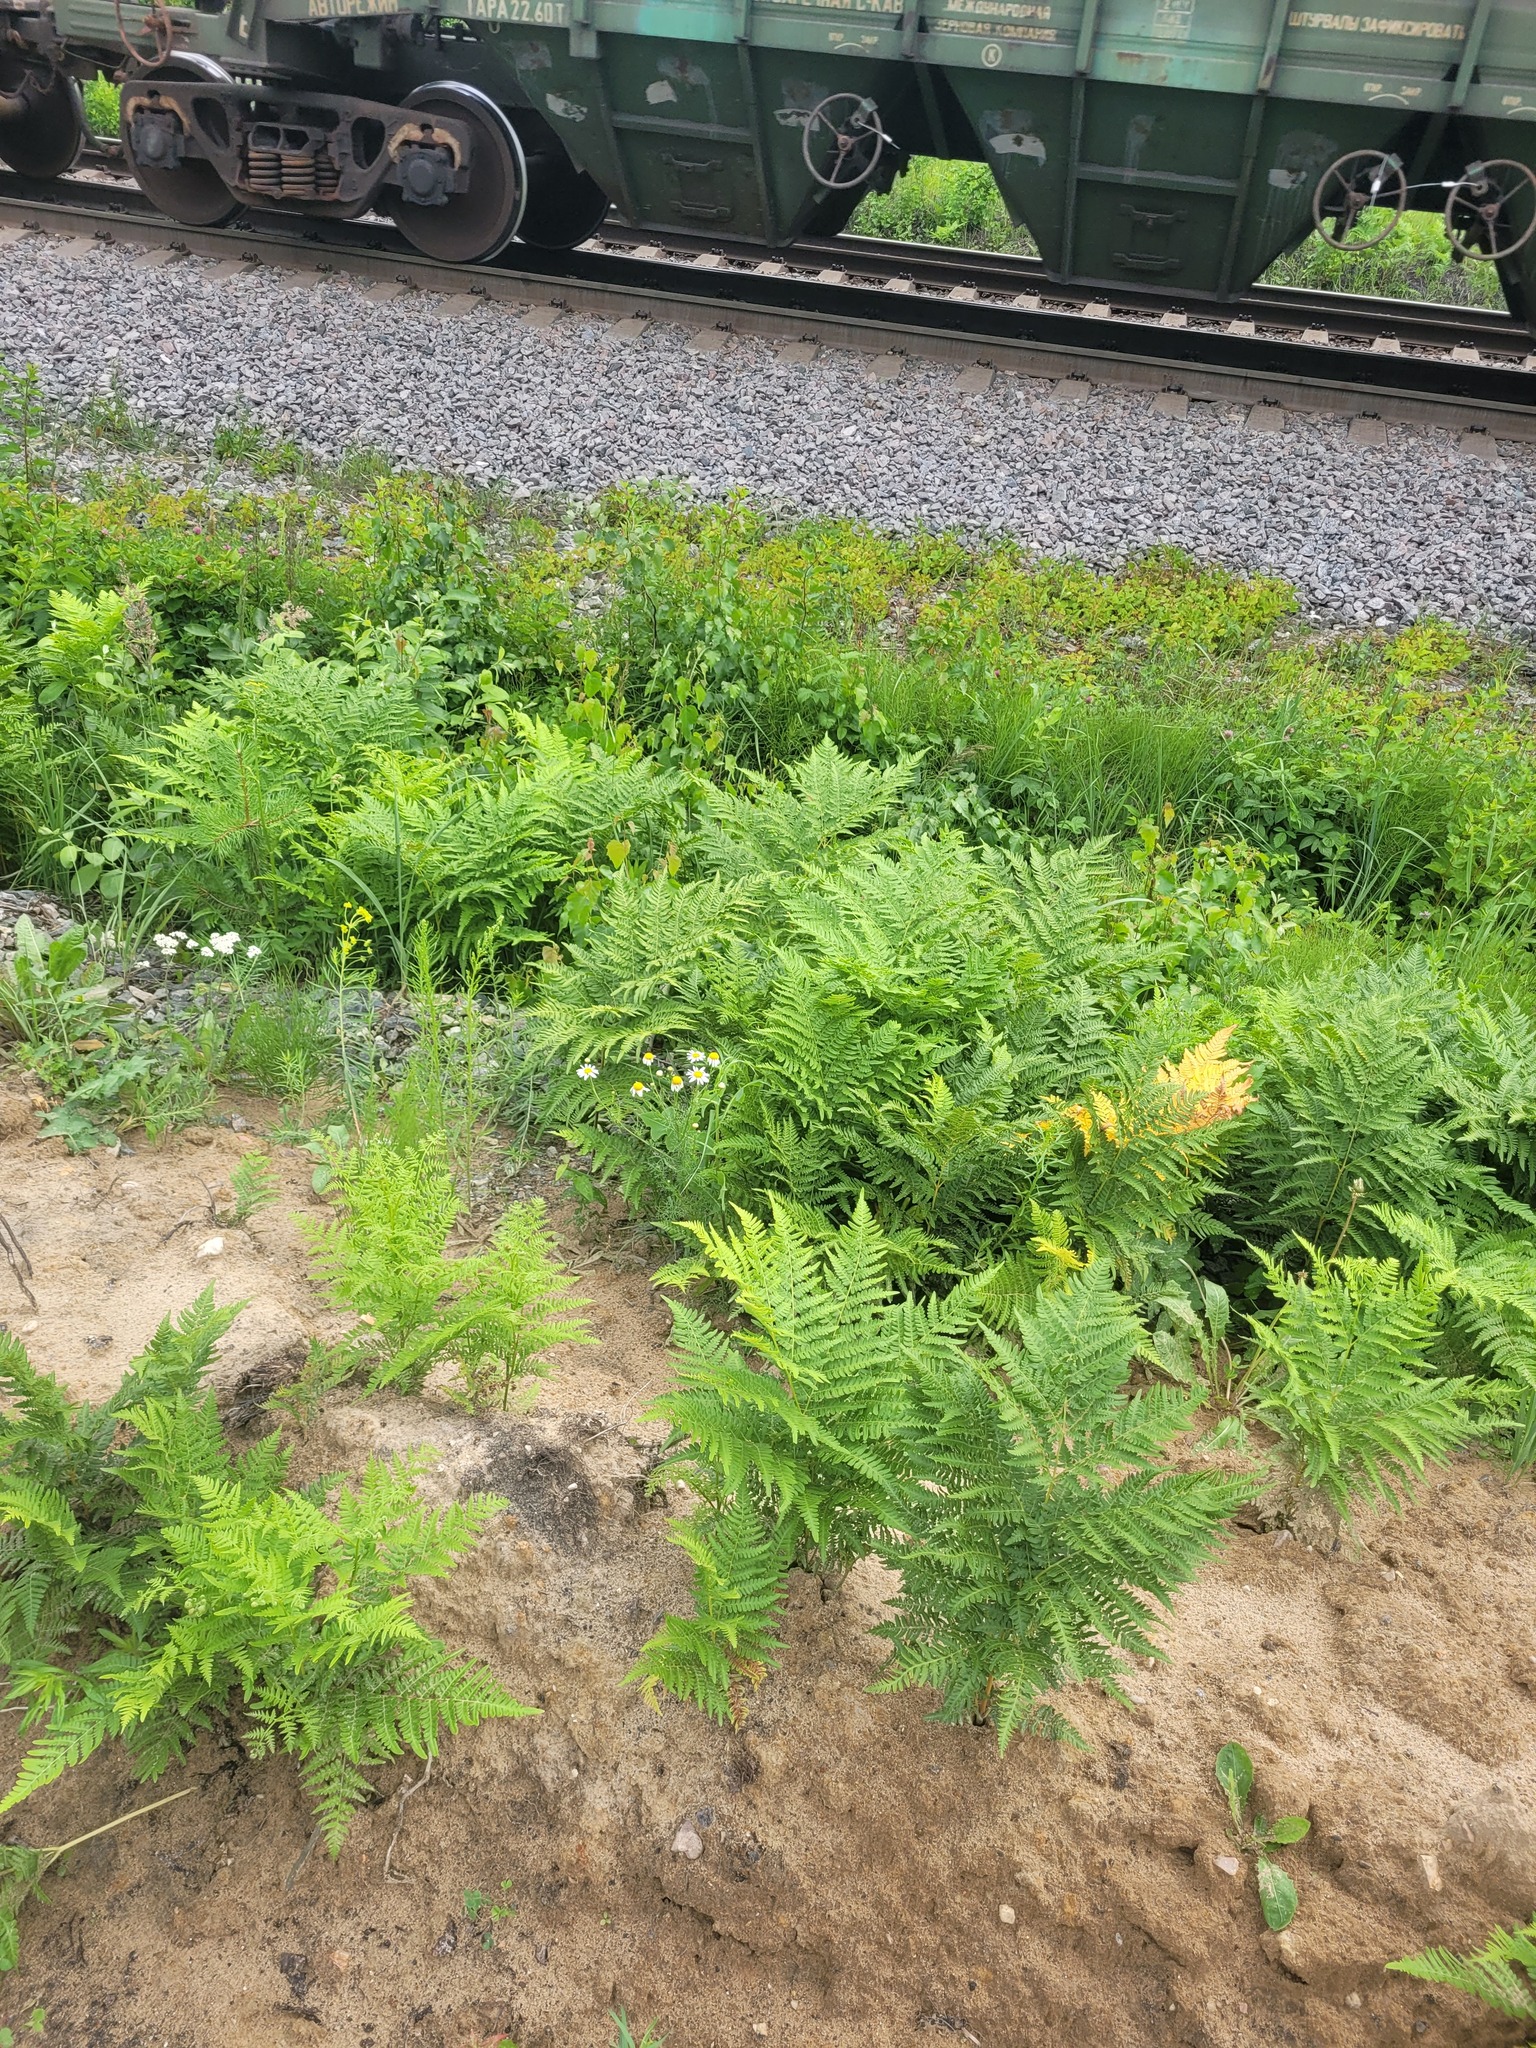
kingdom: Plantae
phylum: Tracheophyta
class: Polypodiopsida
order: Polypodiales
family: Dennstaedtiaceae
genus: Pteridium
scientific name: Pteridium aquilinum
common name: Bracken
